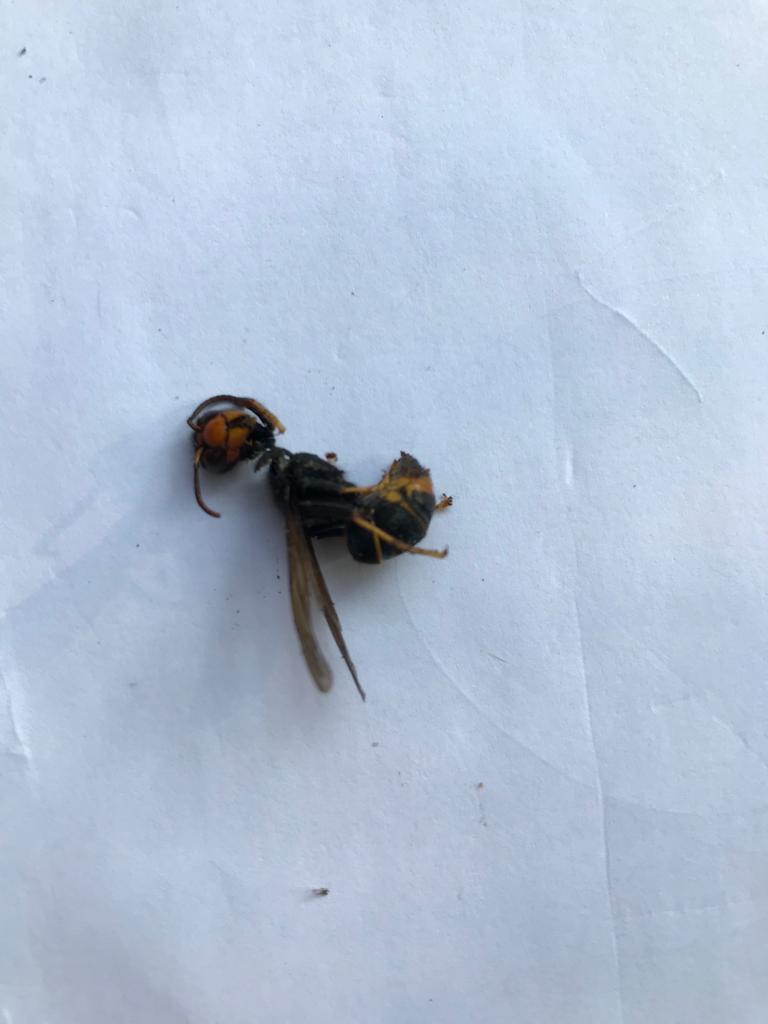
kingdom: Animalia
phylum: Arthropoda
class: Insecta
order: Hymenoptera
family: Vespidae
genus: Vespa
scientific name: Vespa velutina
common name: Asian hornet
